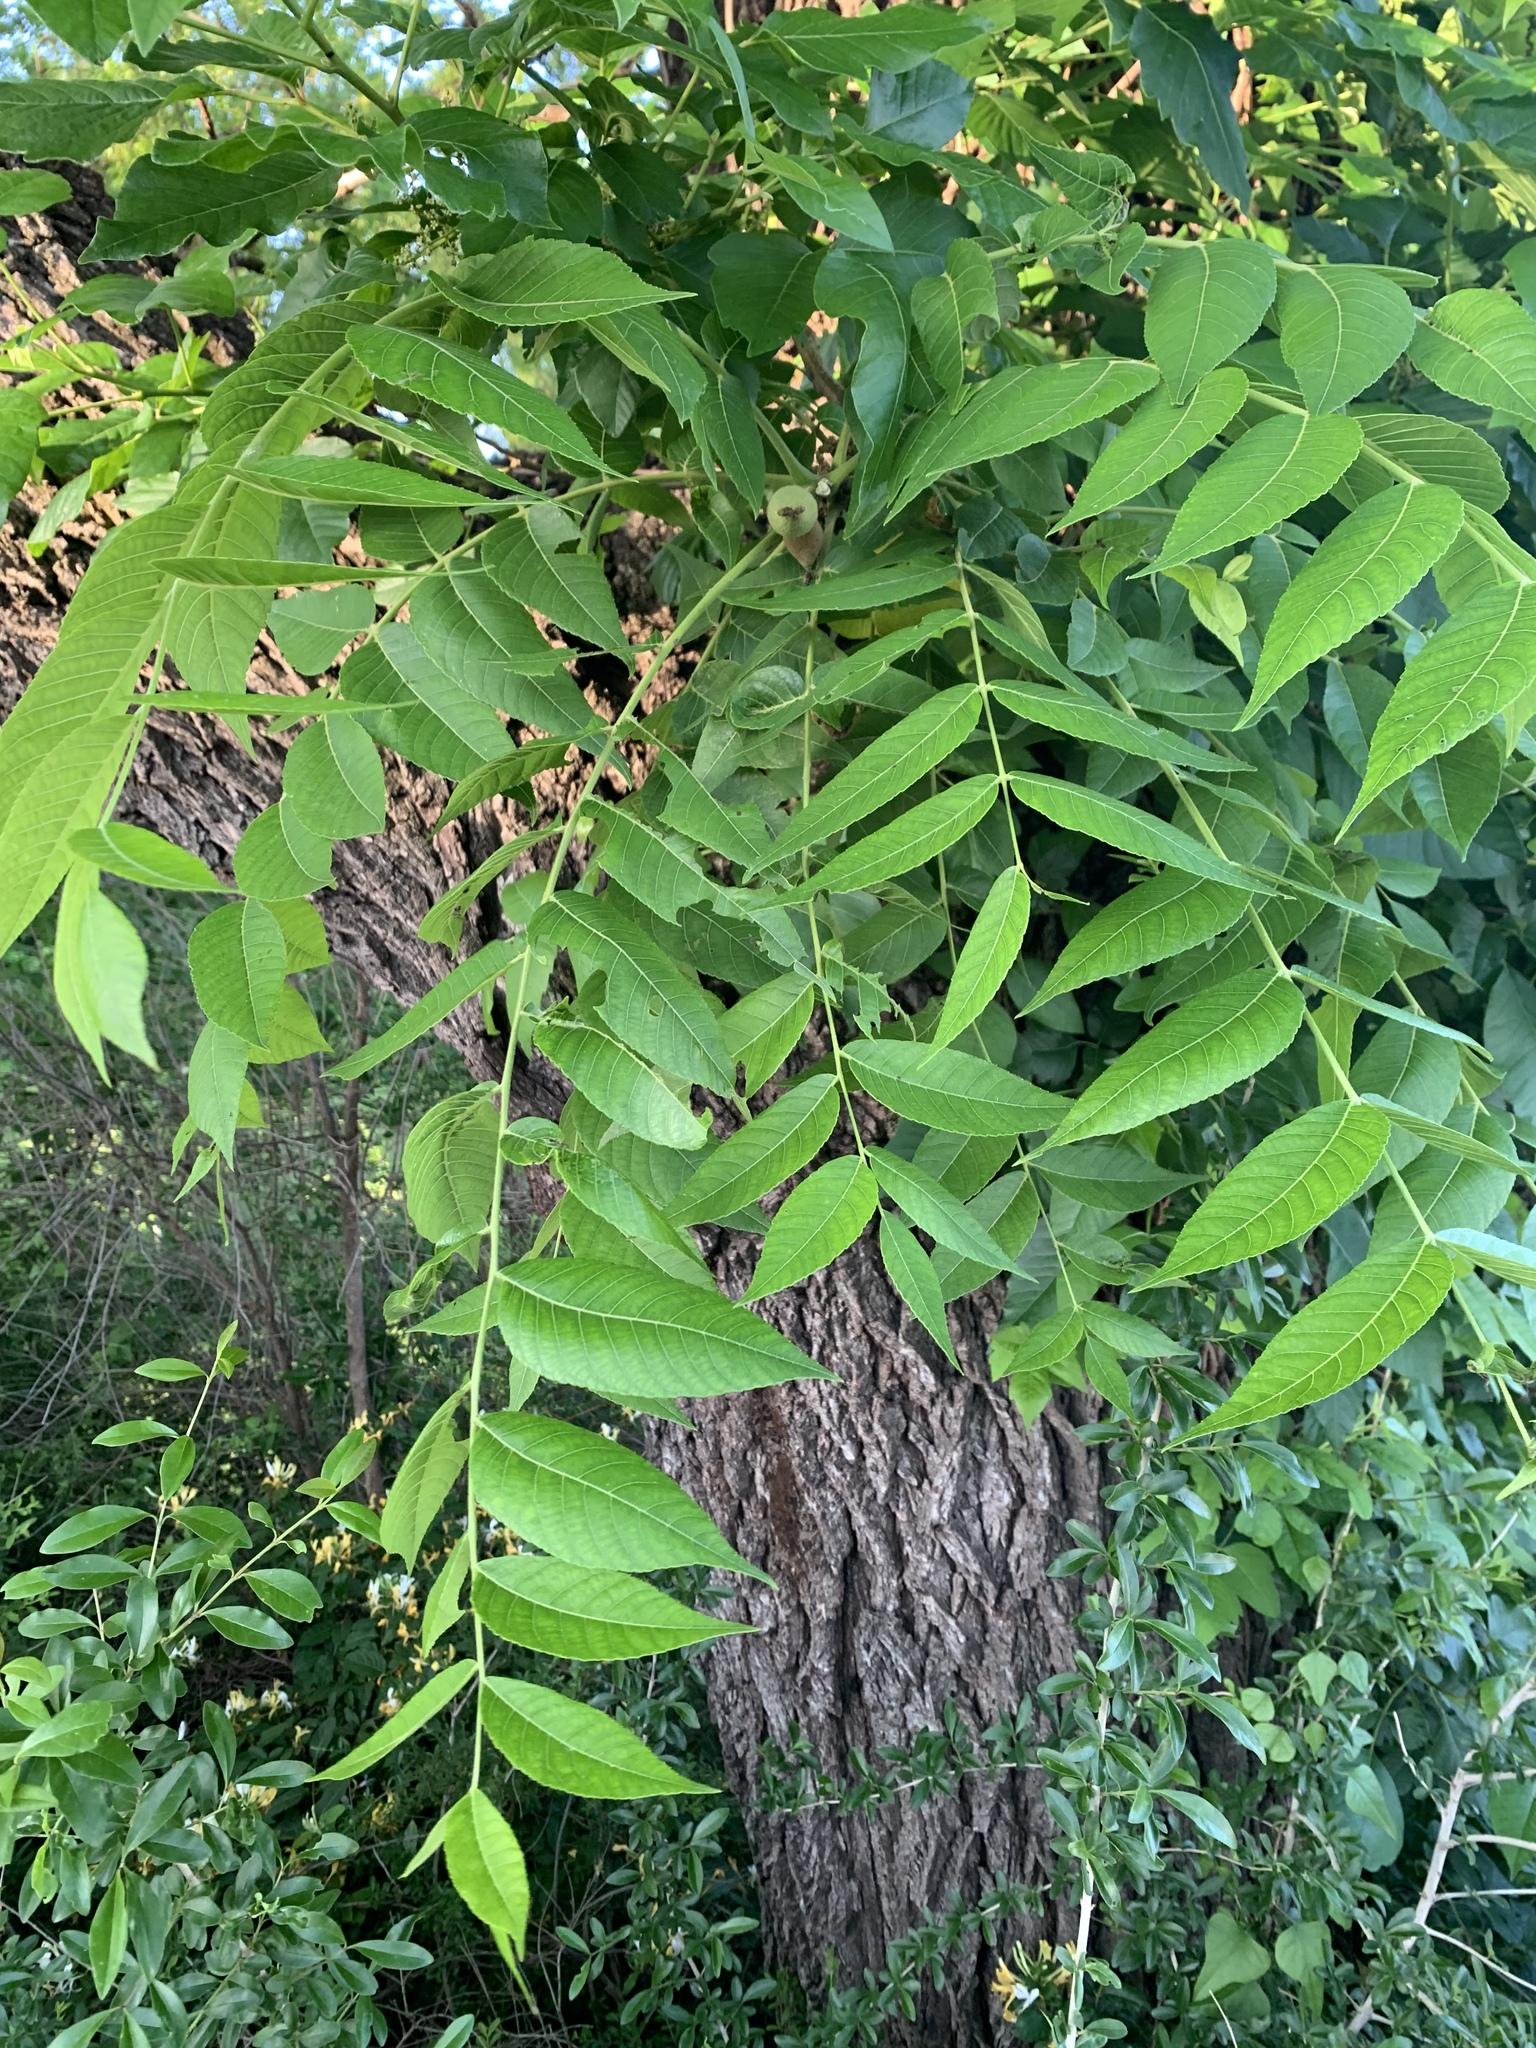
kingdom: Plantae
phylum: Tracheophyta
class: Magnoliopsida
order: Fagales
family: Juglandaceae
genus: Juglans
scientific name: Juglans nigra
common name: Black walnut
